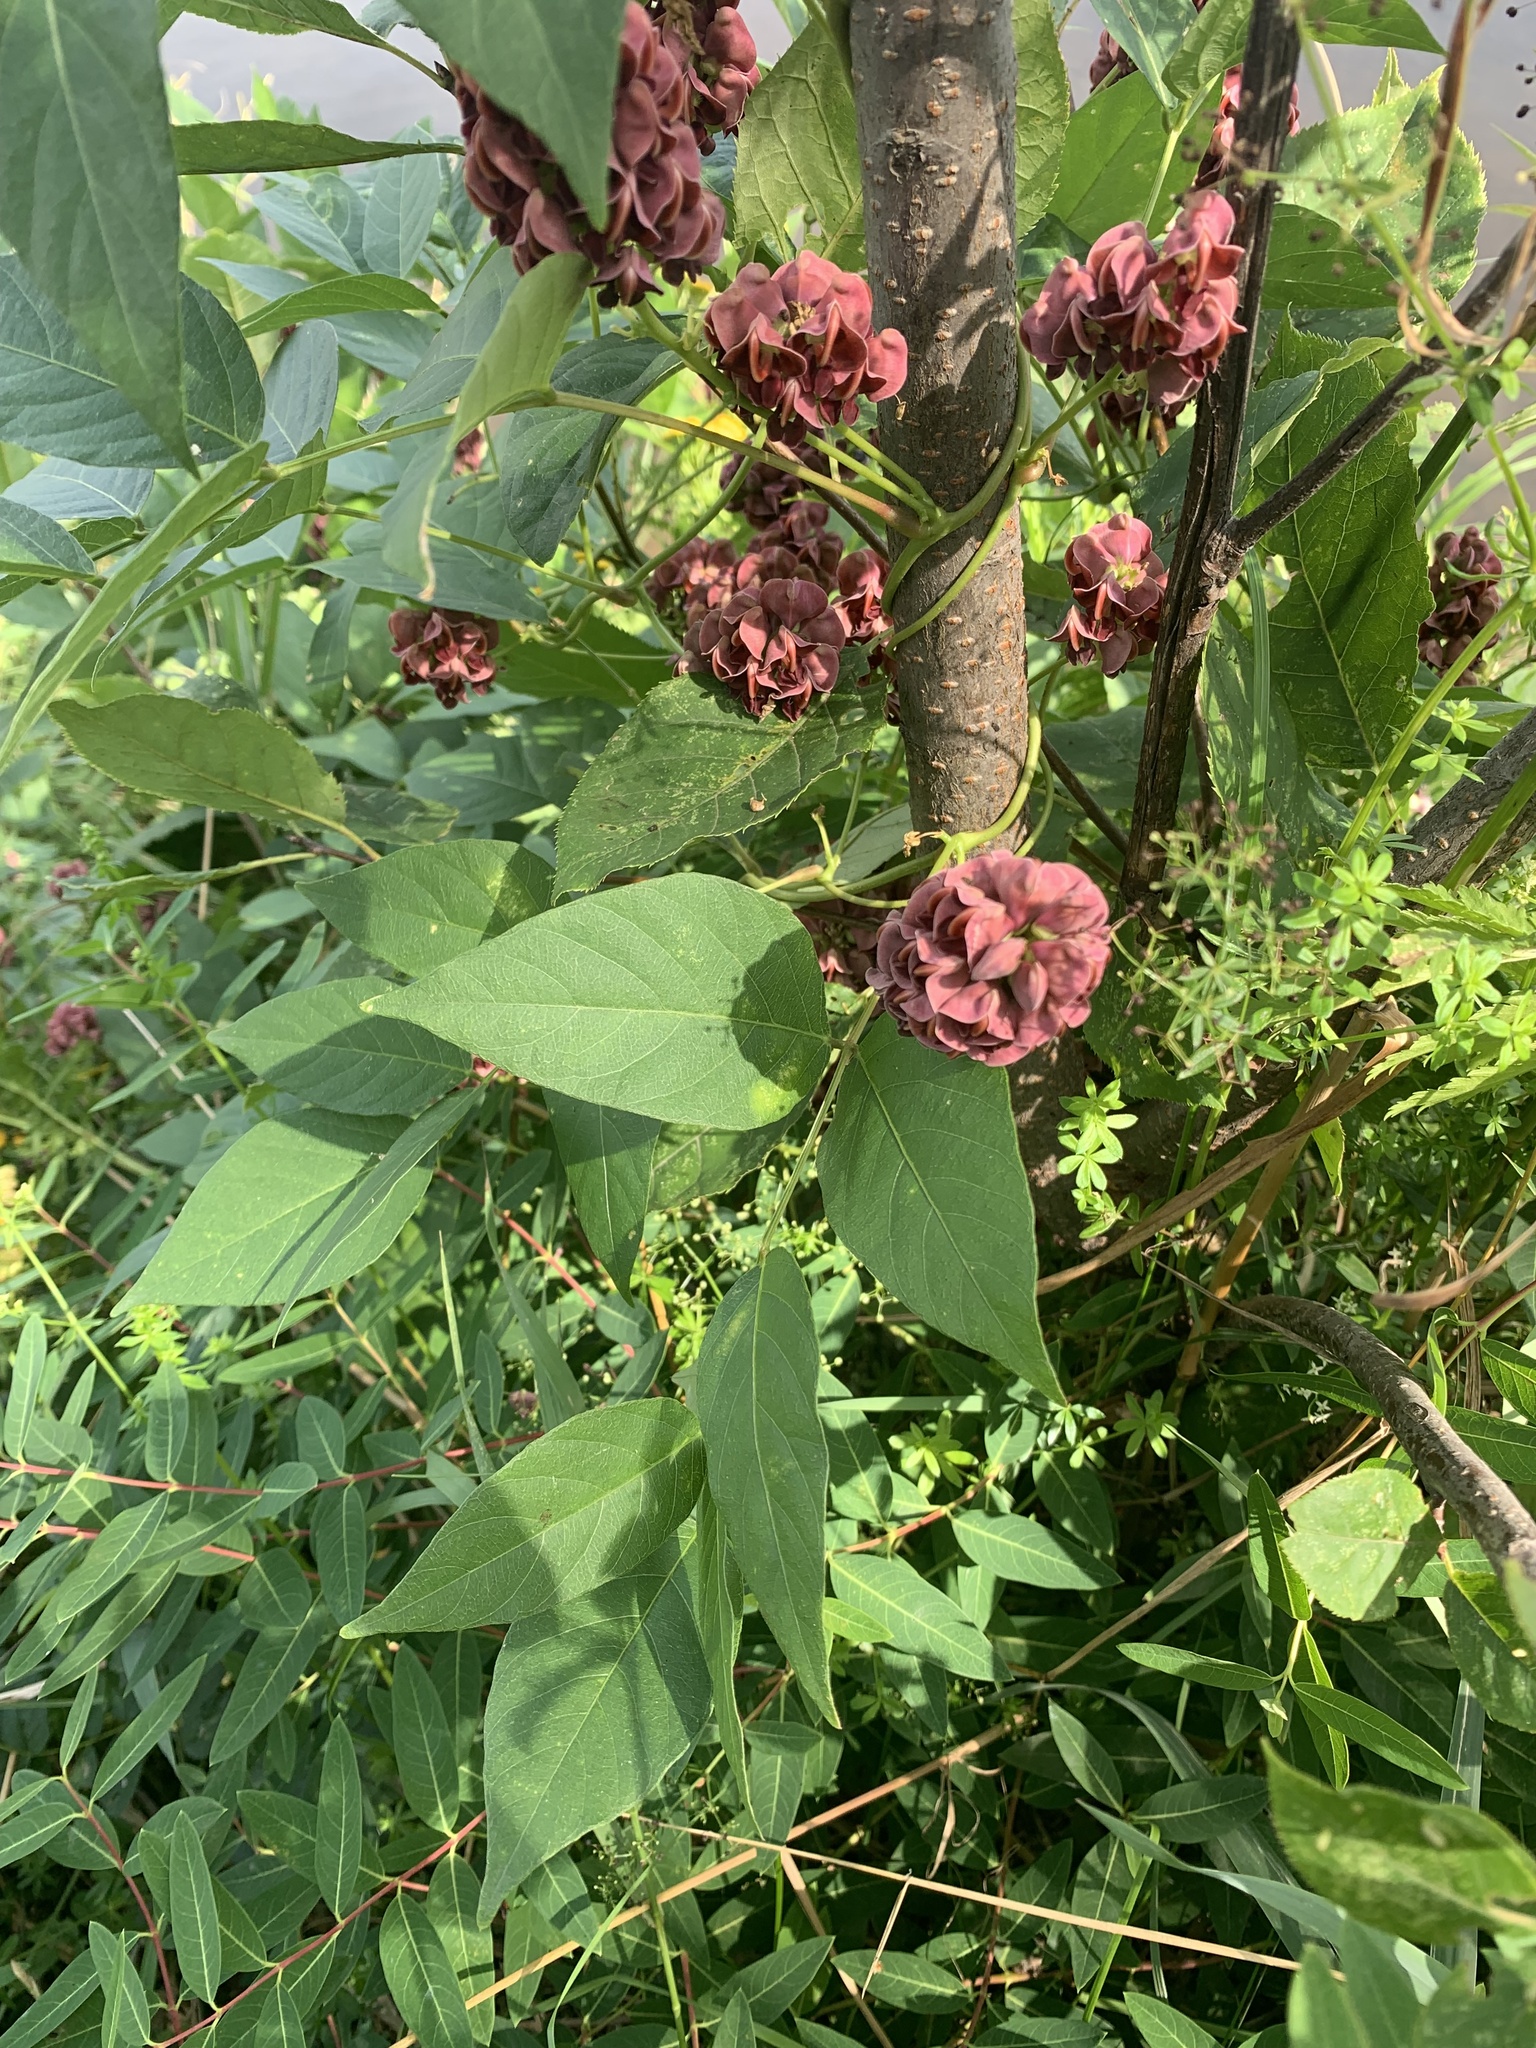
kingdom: Plantae
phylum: Tracheophyta
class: Magnoliopsida
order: Fabales
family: Fabaceae
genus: Apios
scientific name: Apios americana
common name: American potato-bean
